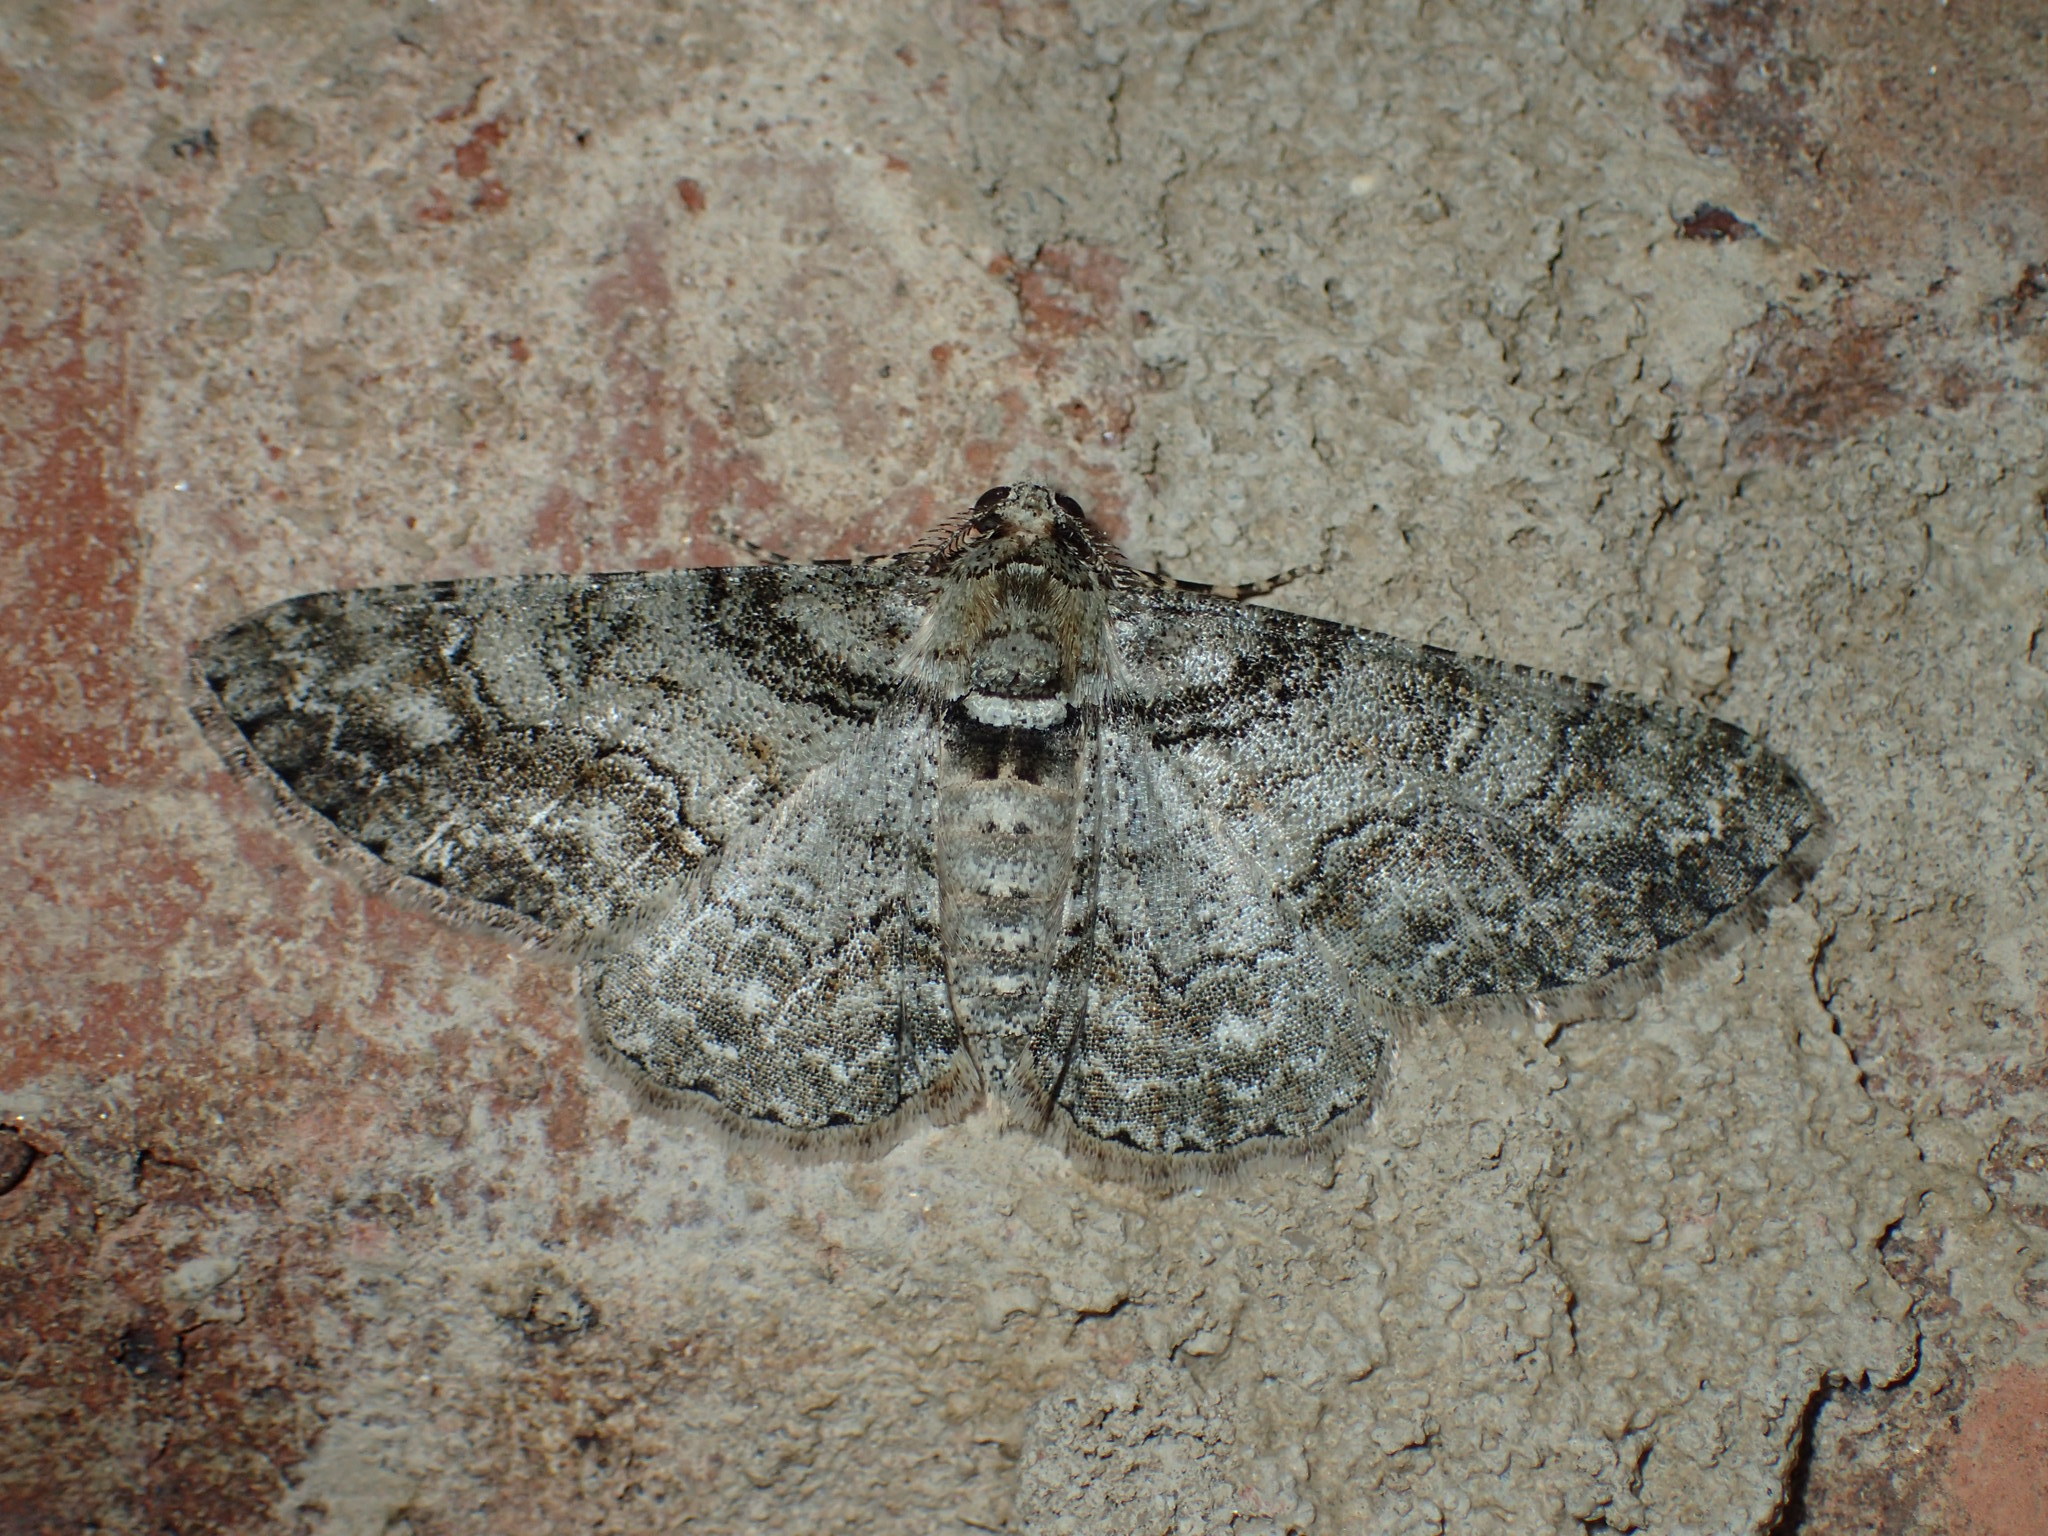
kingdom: Animalia
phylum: Arthropoda
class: Insecta
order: Lepidoptera
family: Geometridae
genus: Cleora
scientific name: Cleora sublunaria
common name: Double-lined gray
